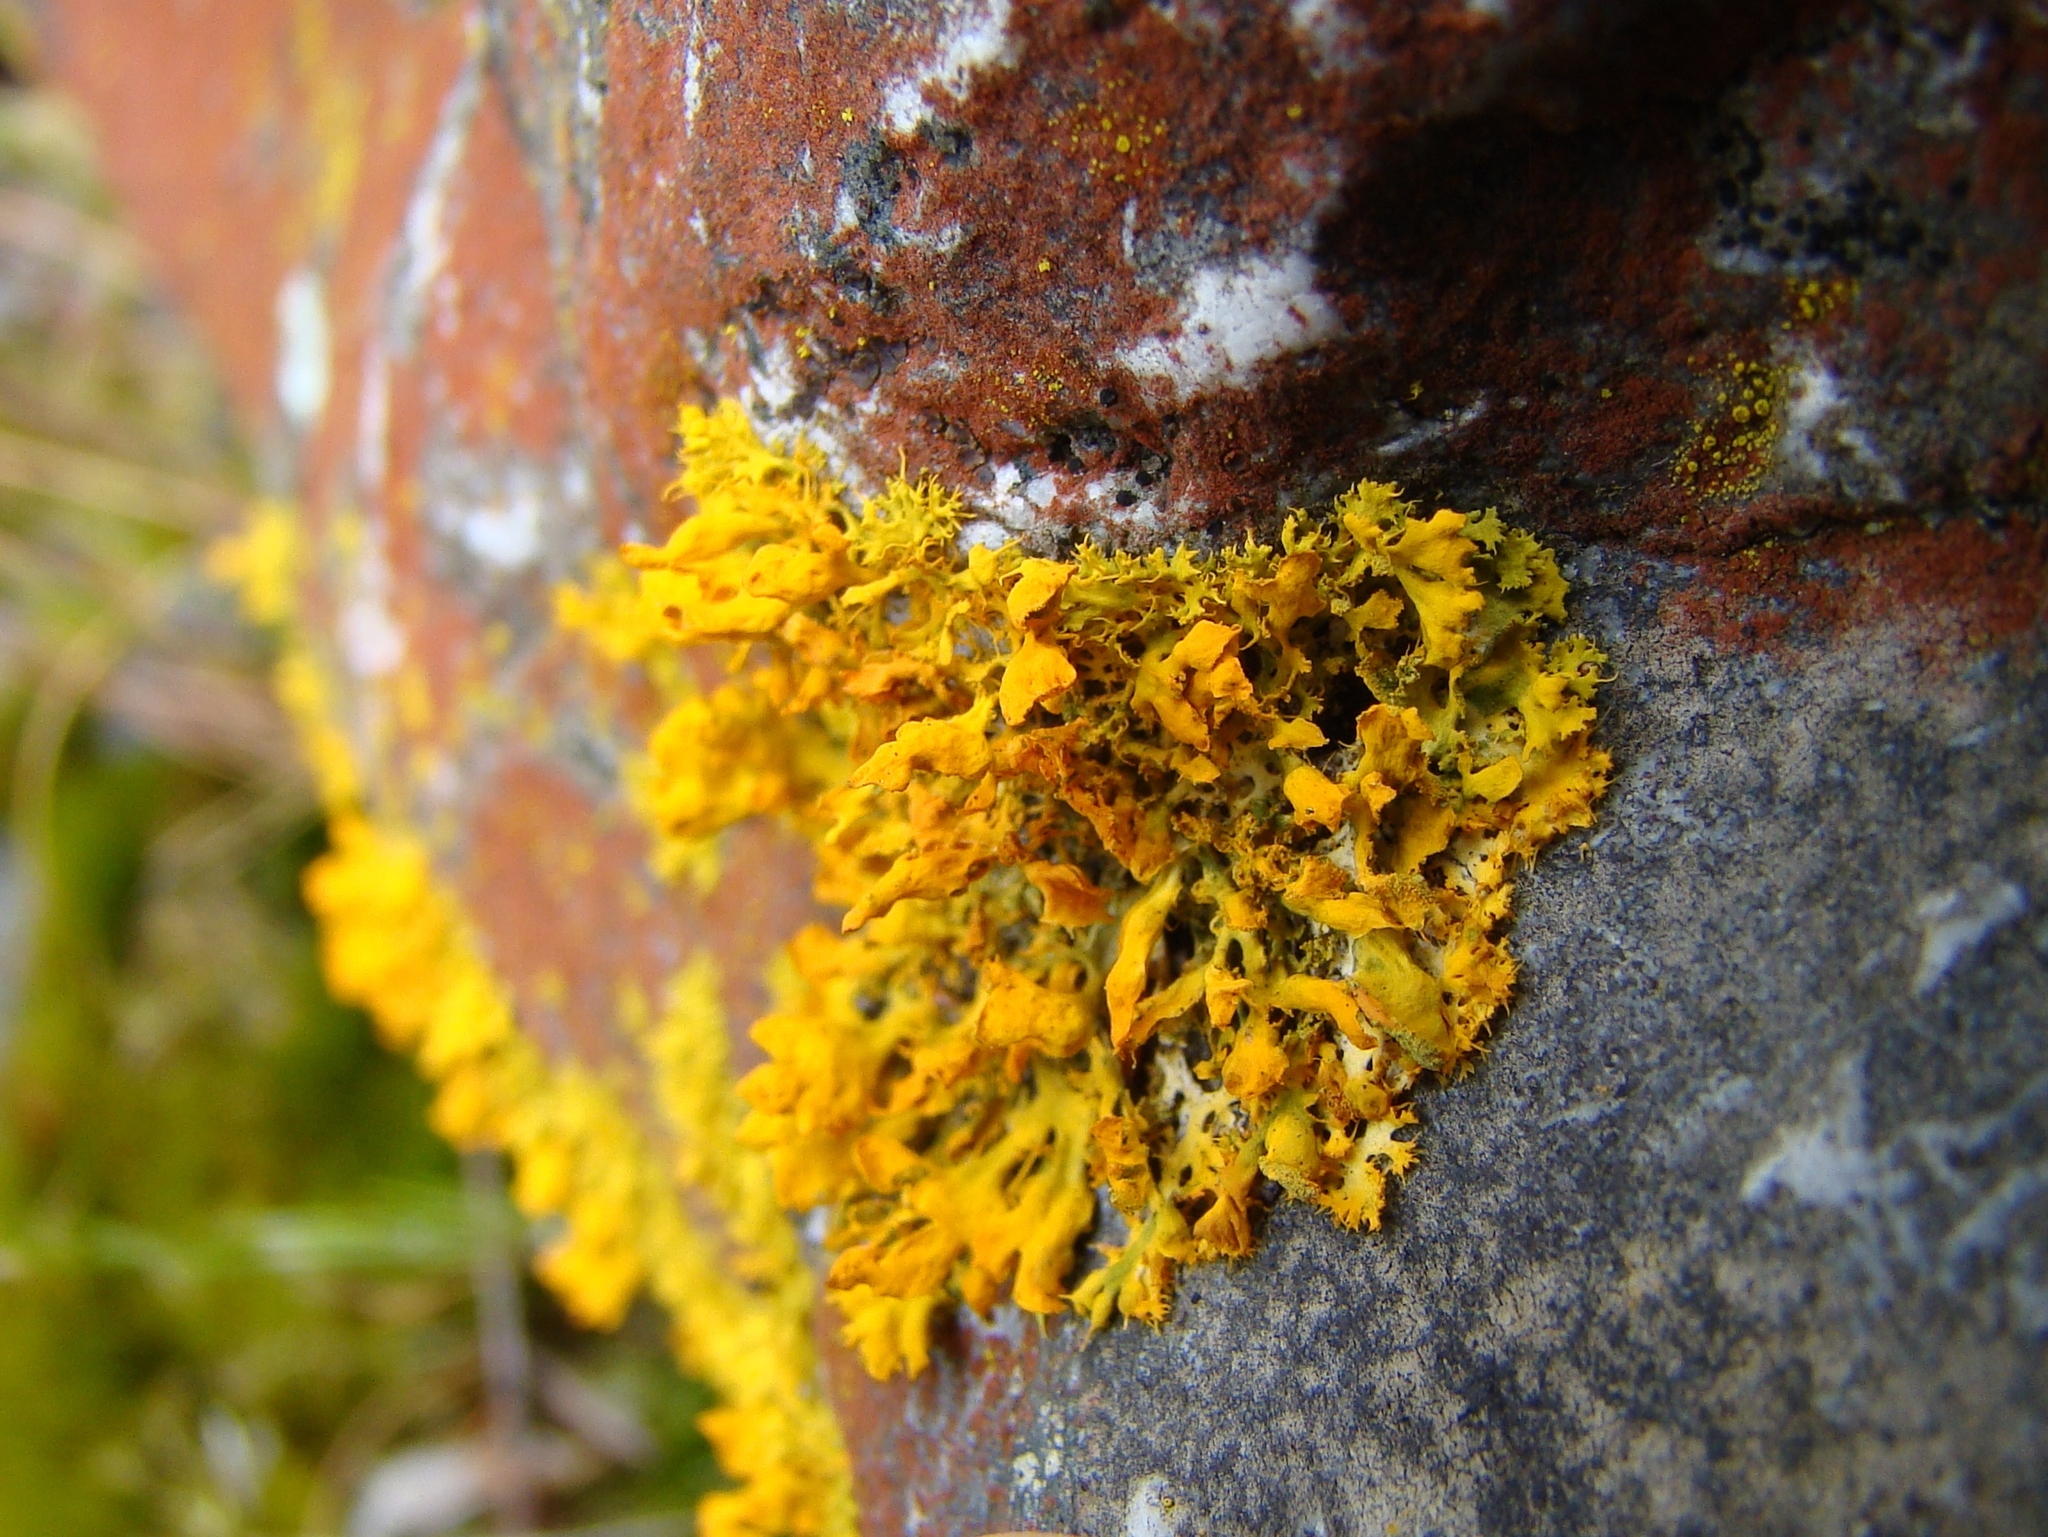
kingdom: Fungi
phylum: Ascomycota
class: Lecanoromycetes
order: Teloschistales
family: Teloschistaceae
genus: Teloschistes
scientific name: Teloschistes spinosus
